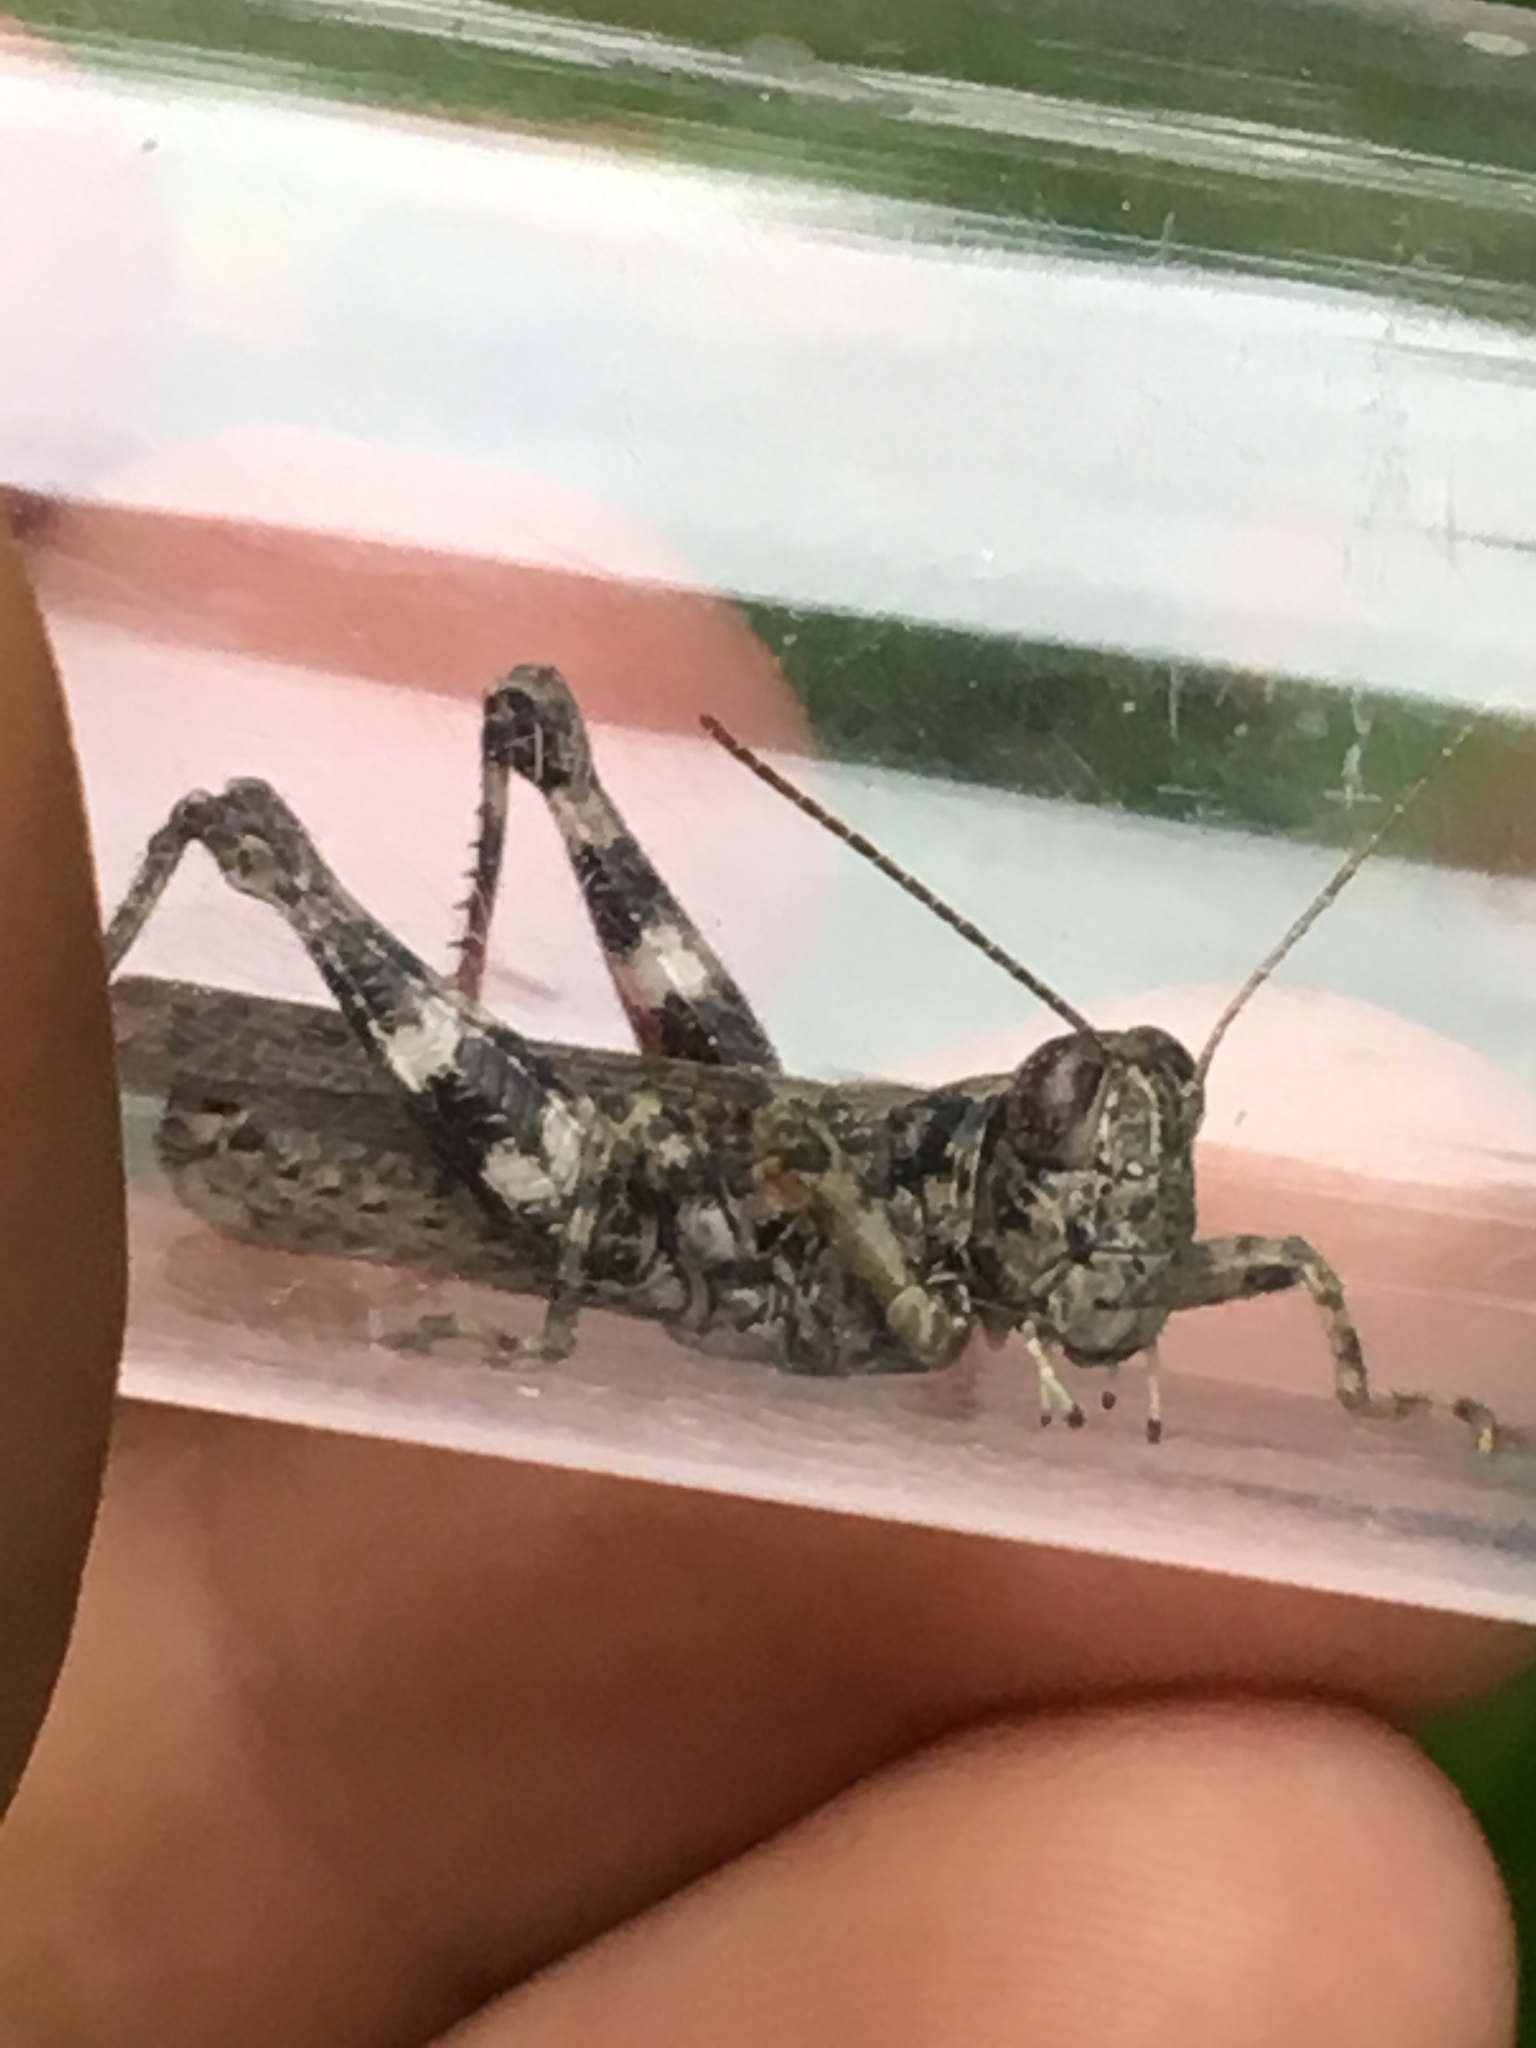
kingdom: Animalia
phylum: Arthropoda
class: Insecta
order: Orthoptera
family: Acrididae
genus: Melanoplus
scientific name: Melanoplus punctulatus
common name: Pine-tree spur-throat grasshopper
